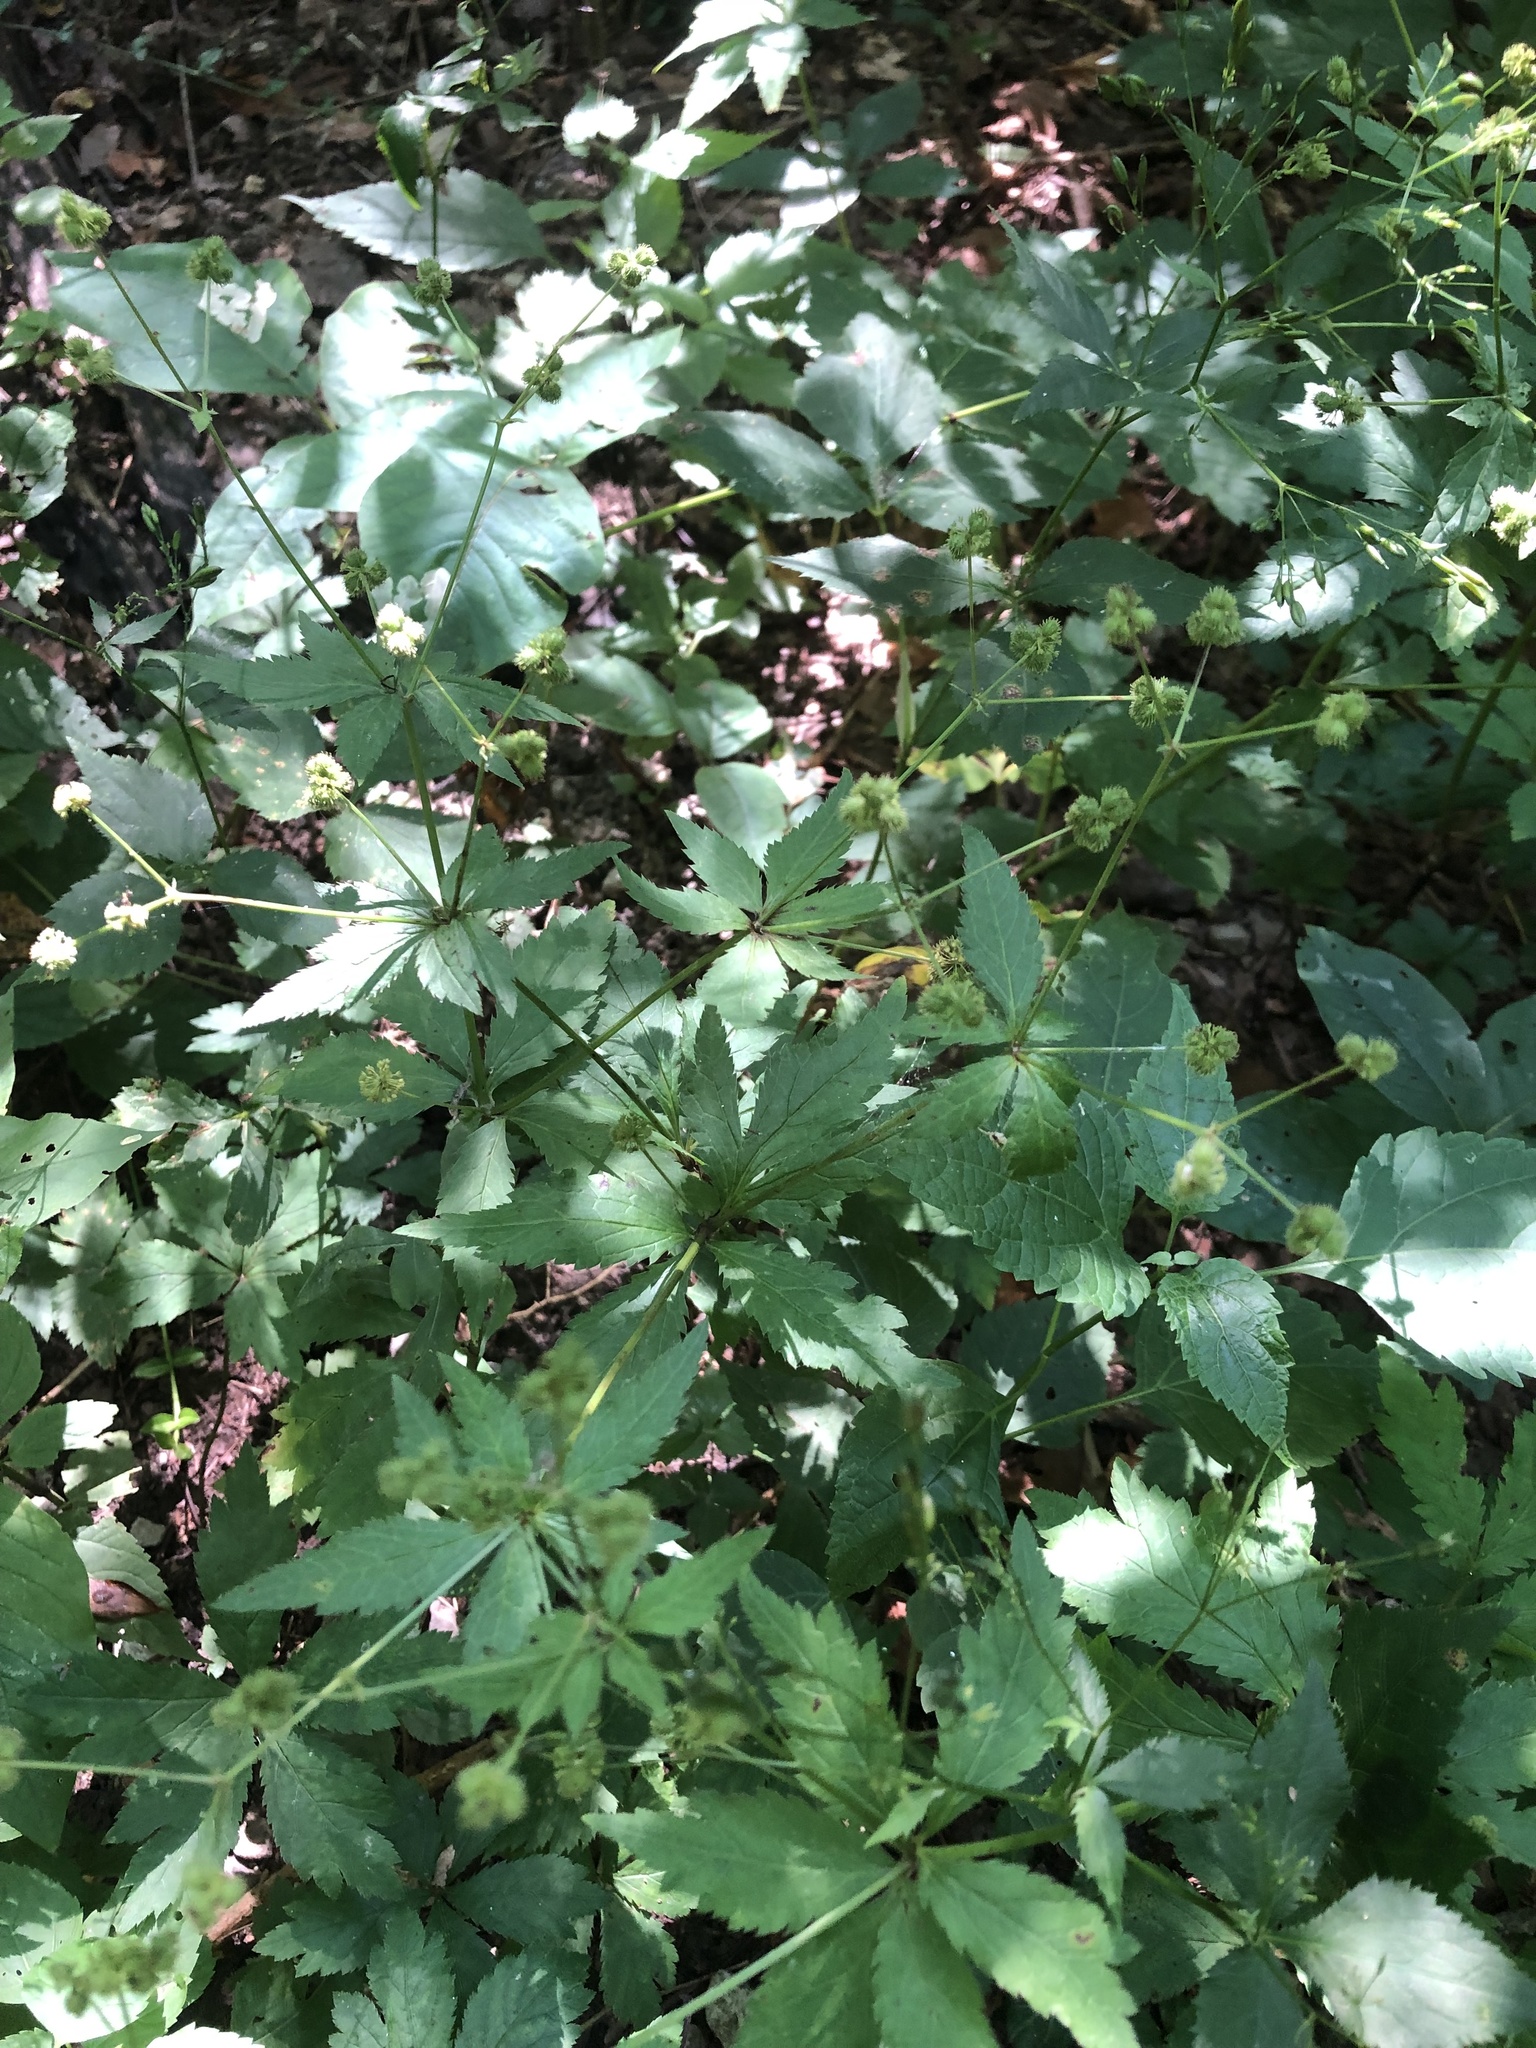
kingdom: Plantae
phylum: Tracheophyta
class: Magnoliopsida
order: Apiales
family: Apiaceae
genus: Sanicula
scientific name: Sanicula odorata
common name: Cluster sanicle
